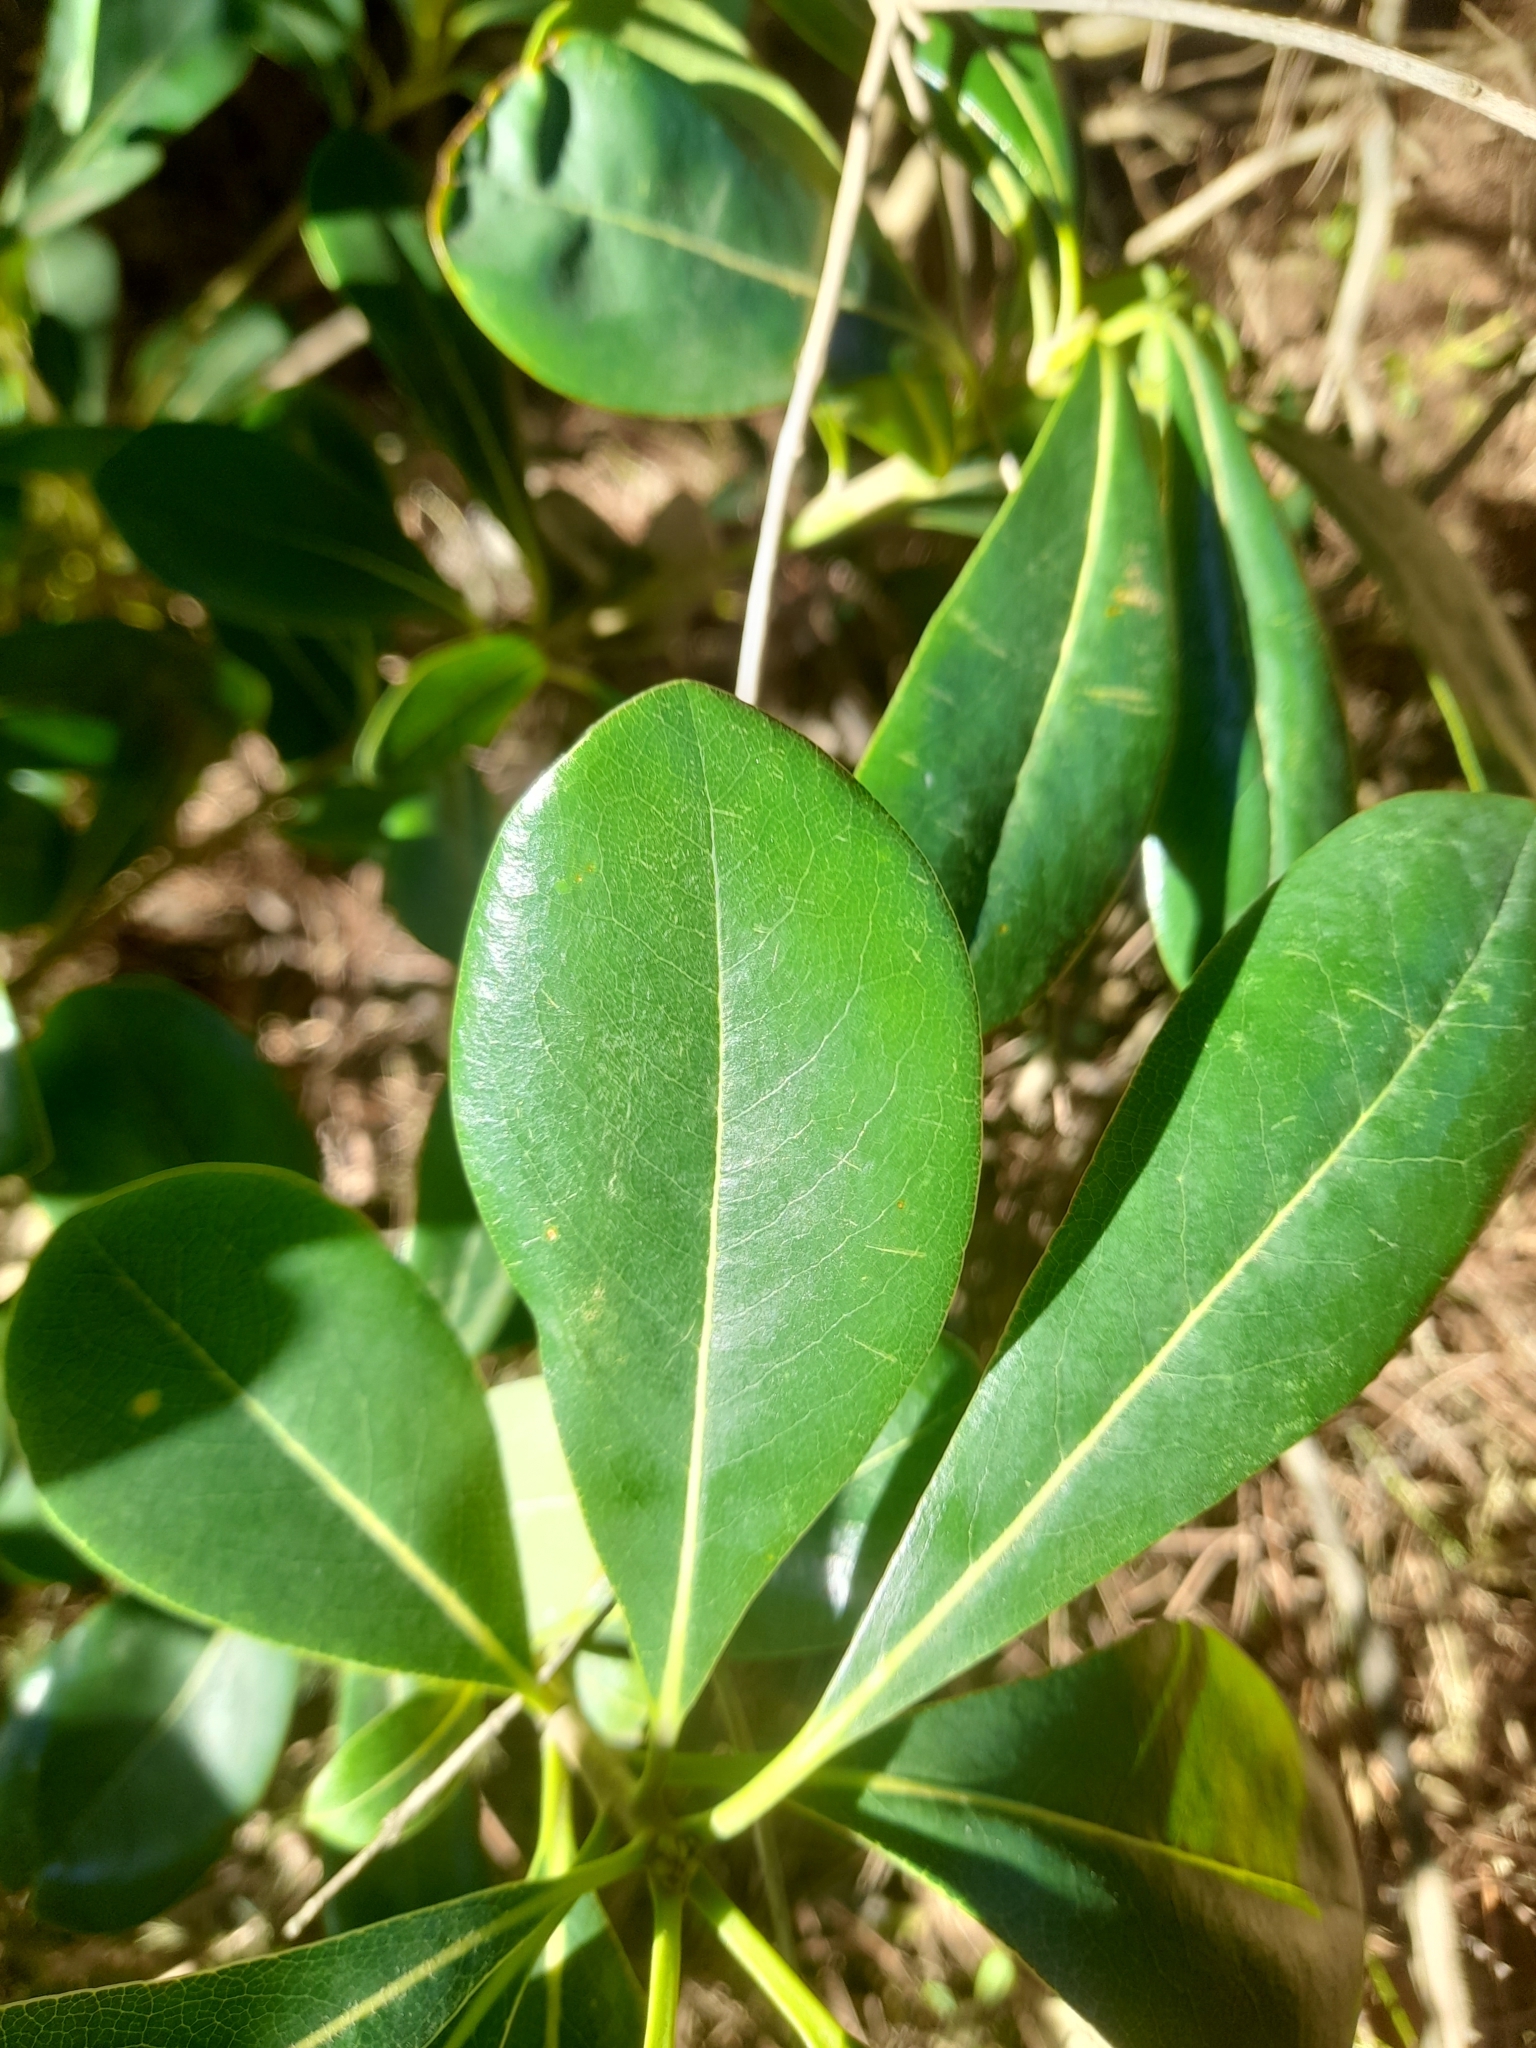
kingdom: Plantae
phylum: Tracheophyta
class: Magnoliopsida
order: Apiales
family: Pittosporaceae
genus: Pittosporum
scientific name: Pittosporum tobira
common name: Japanese cheesewood
